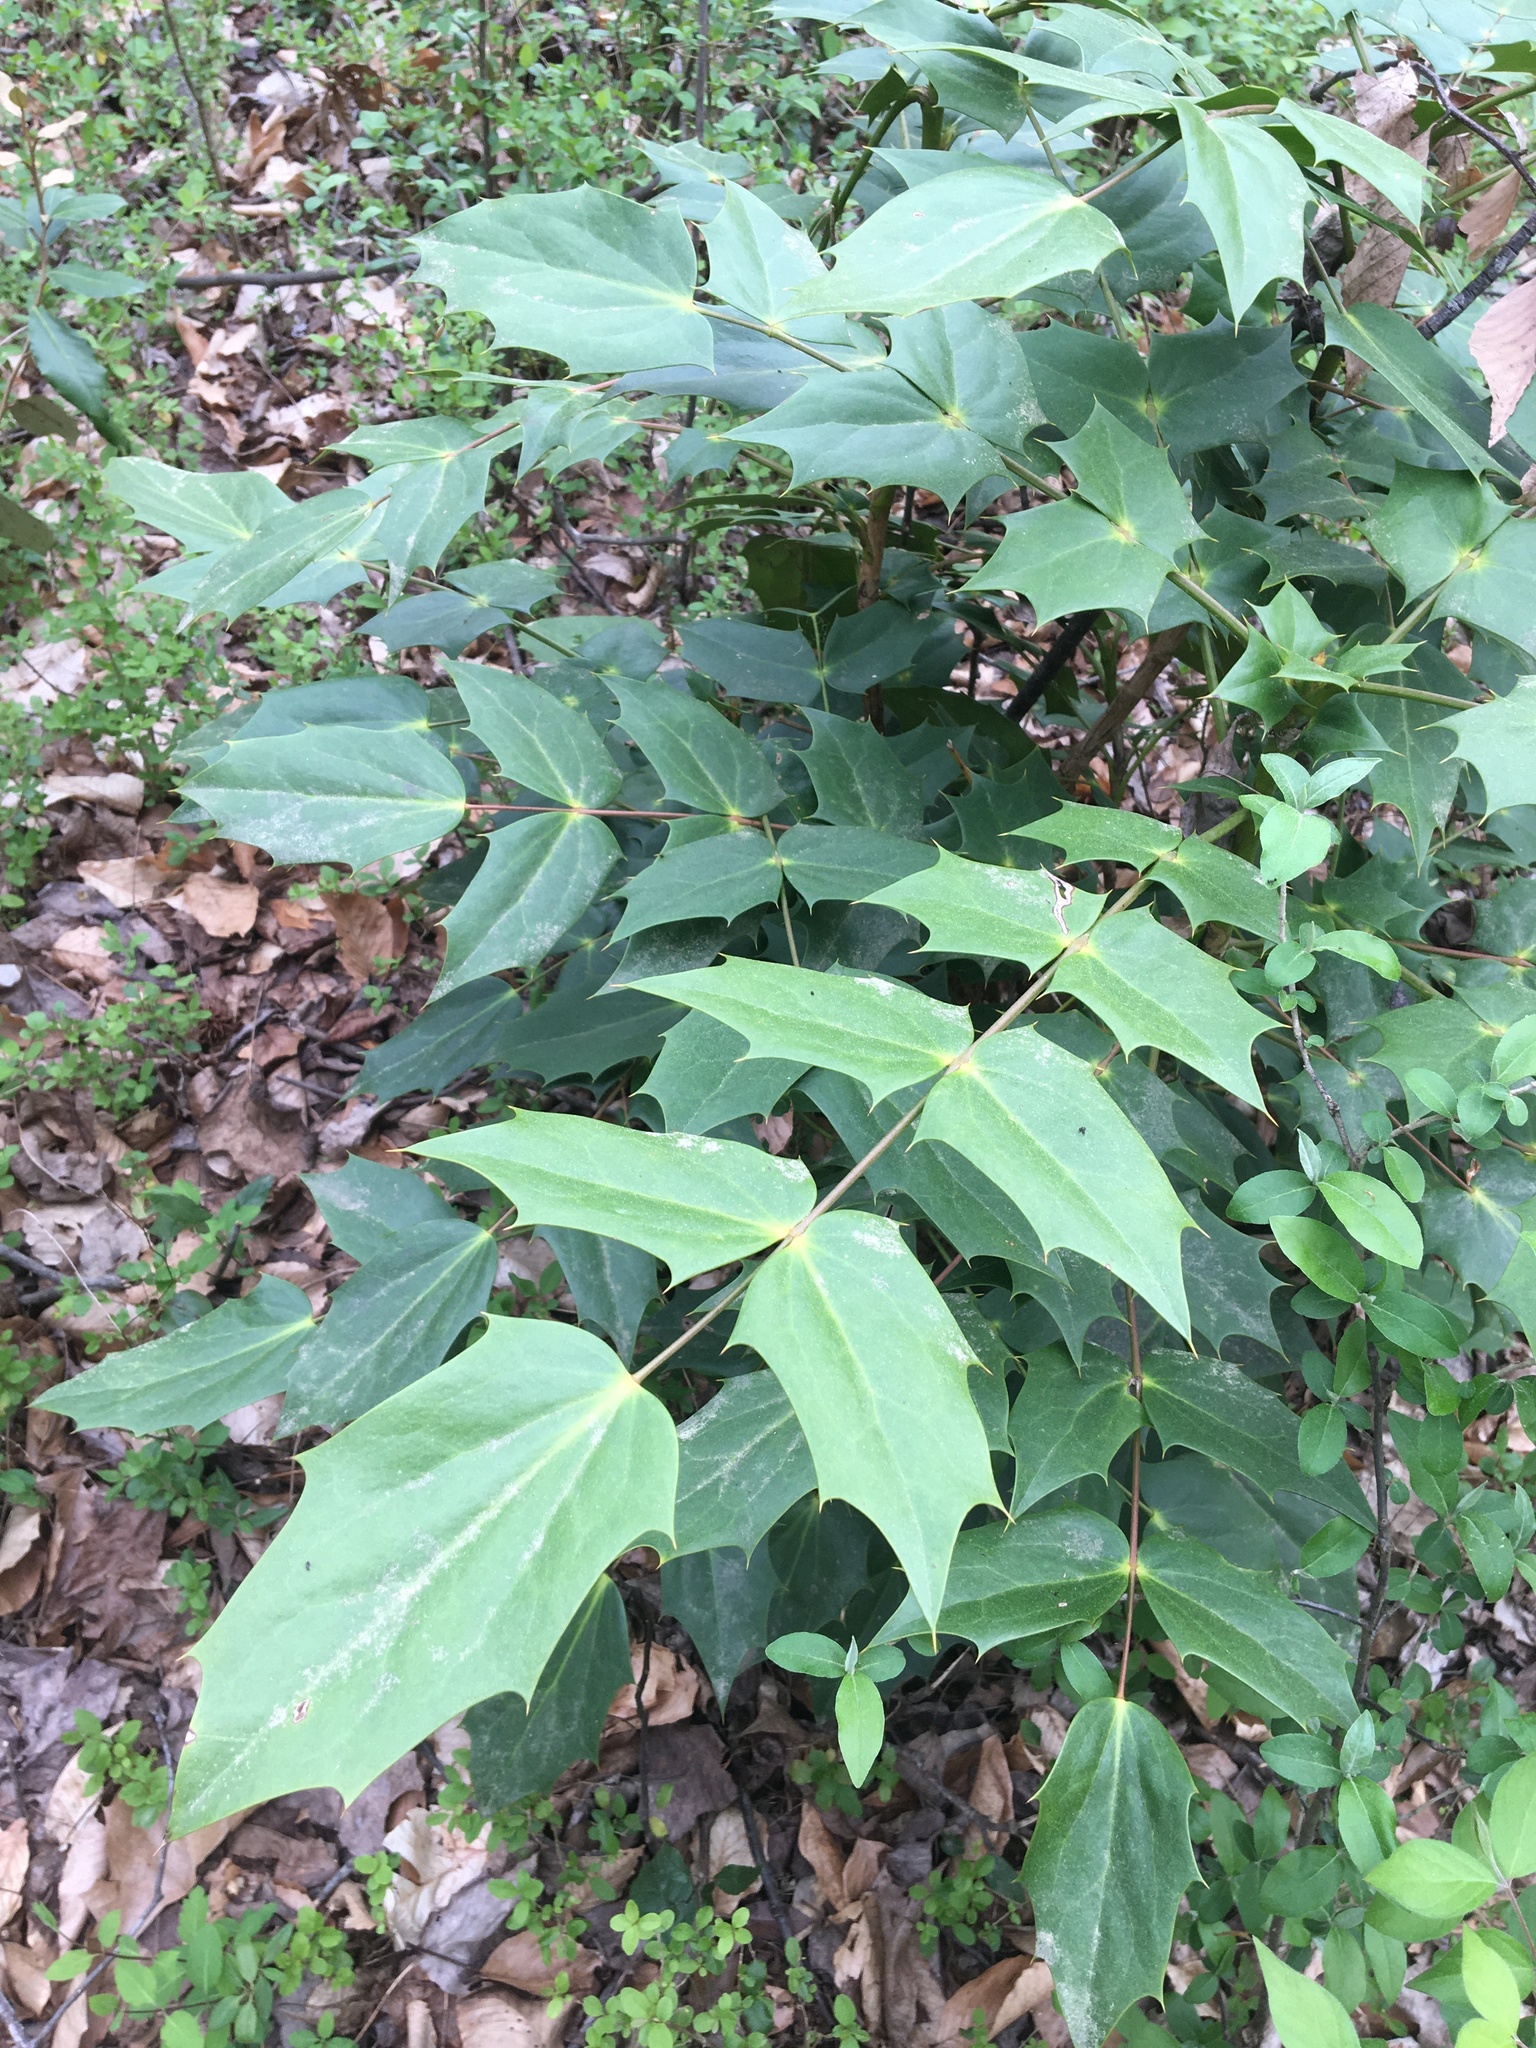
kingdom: Plantae
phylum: Tracheophyta
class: Magnoliopsida
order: Ranunculales
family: Berberidaceae
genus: Mahonia
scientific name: Mahonia bealei
